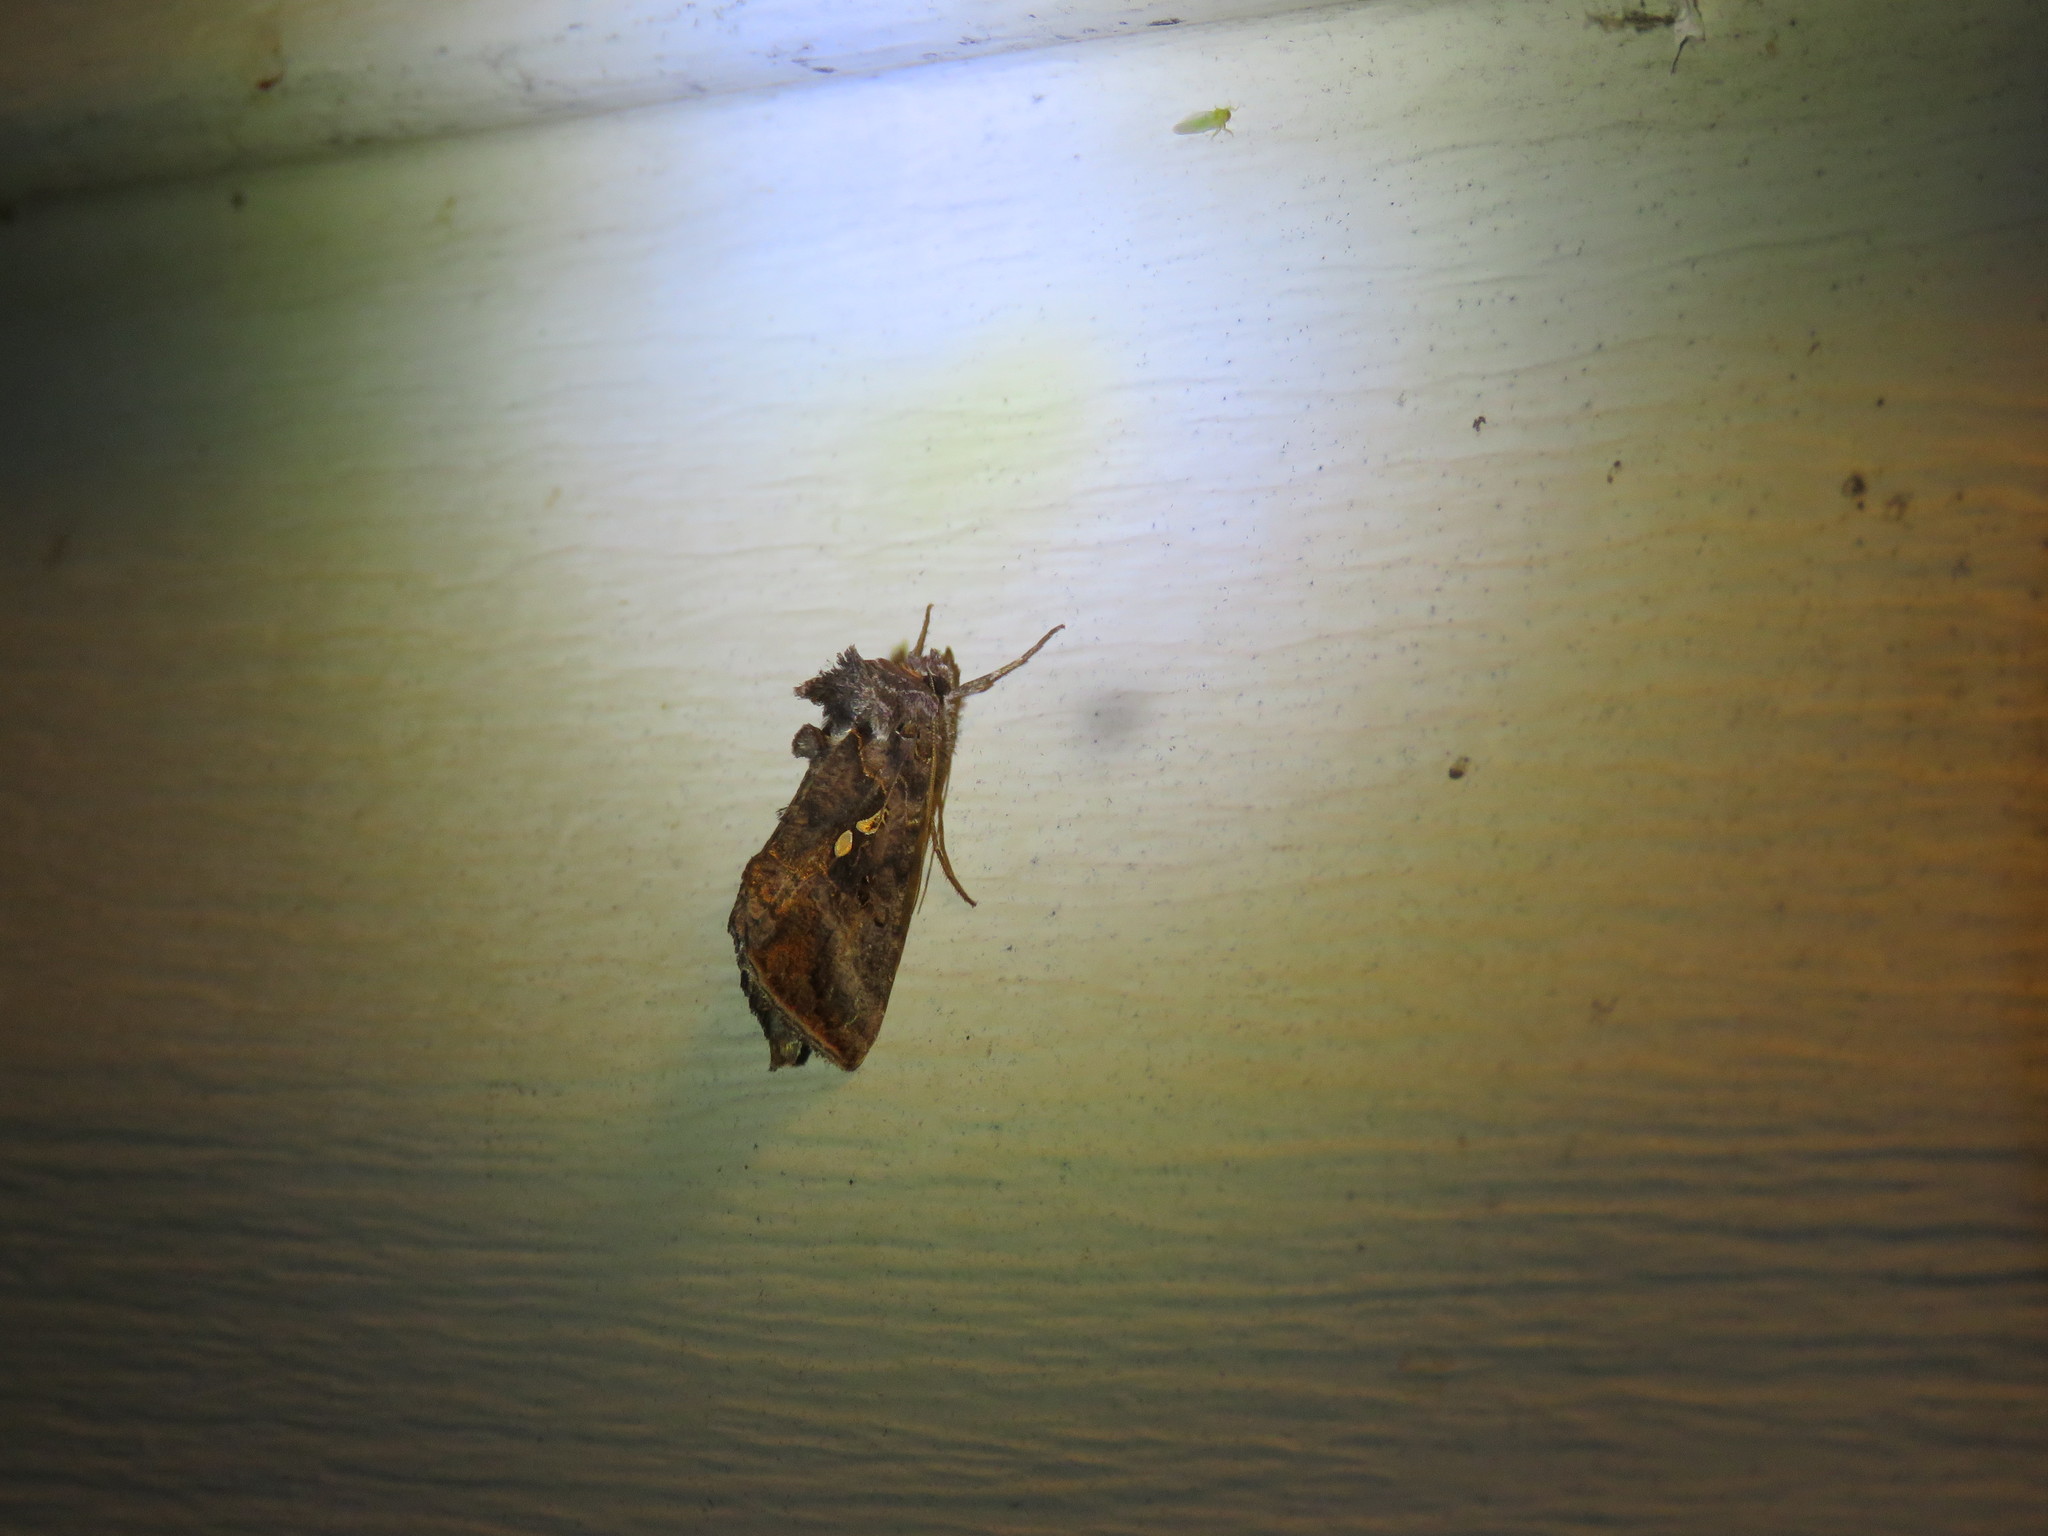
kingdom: Animalia
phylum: Arthropoda
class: Insecta
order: Lepidoptera
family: Noctuidae
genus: Autographa
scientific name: Autographa precationis
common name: Common looper moth
